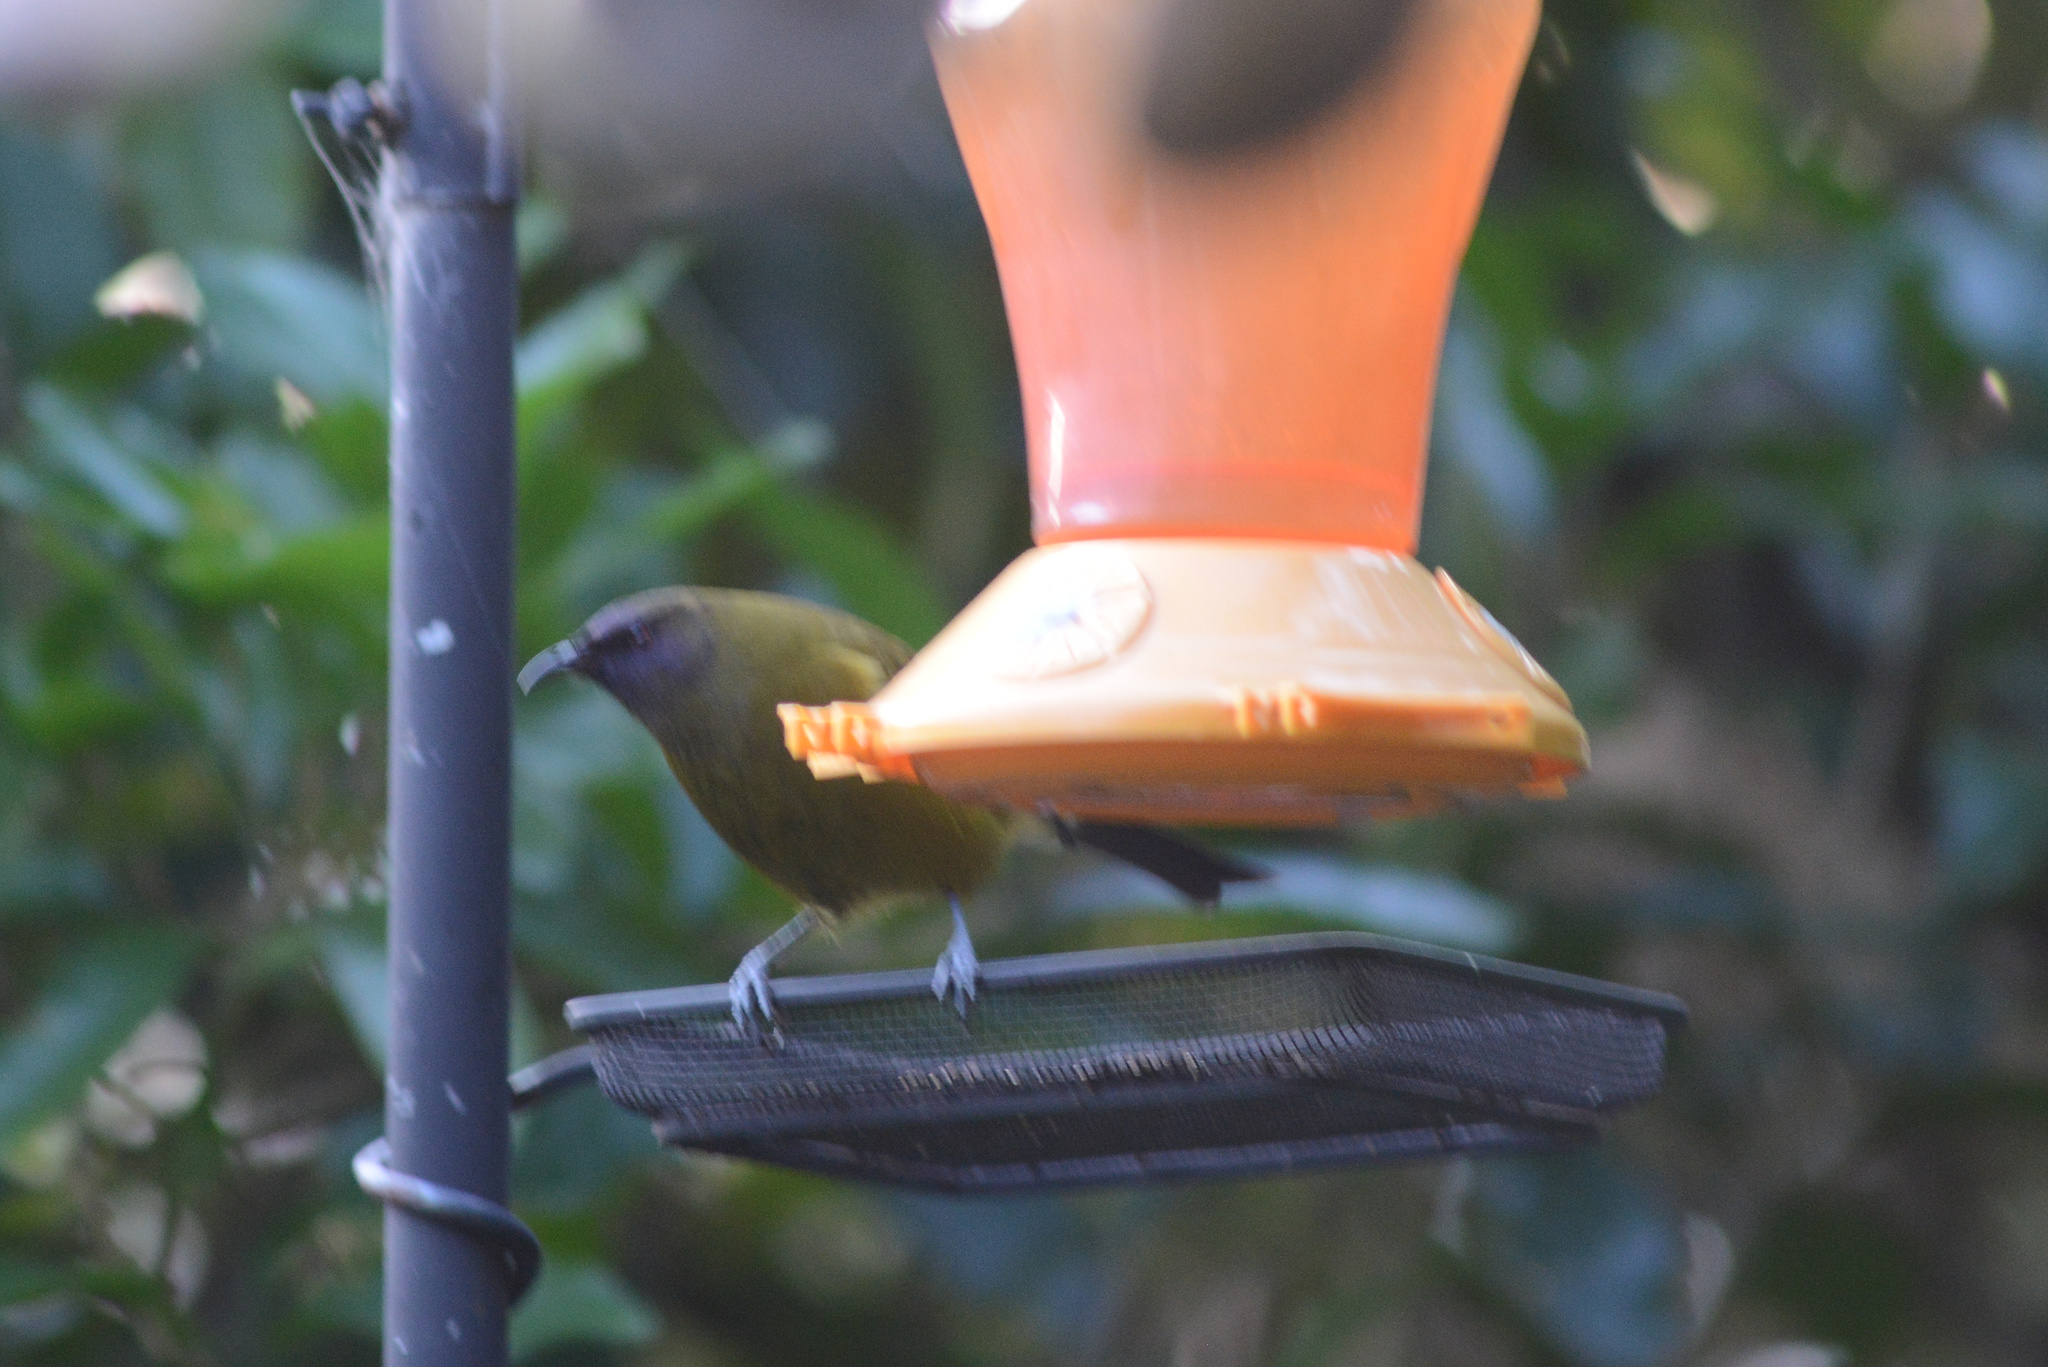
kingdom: Animalia
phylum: Chordata
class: Aves
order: Passeriformes
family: Meliphagidae
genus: Anthornis
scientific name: Anthornis melanura
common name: New zealand bellbird
